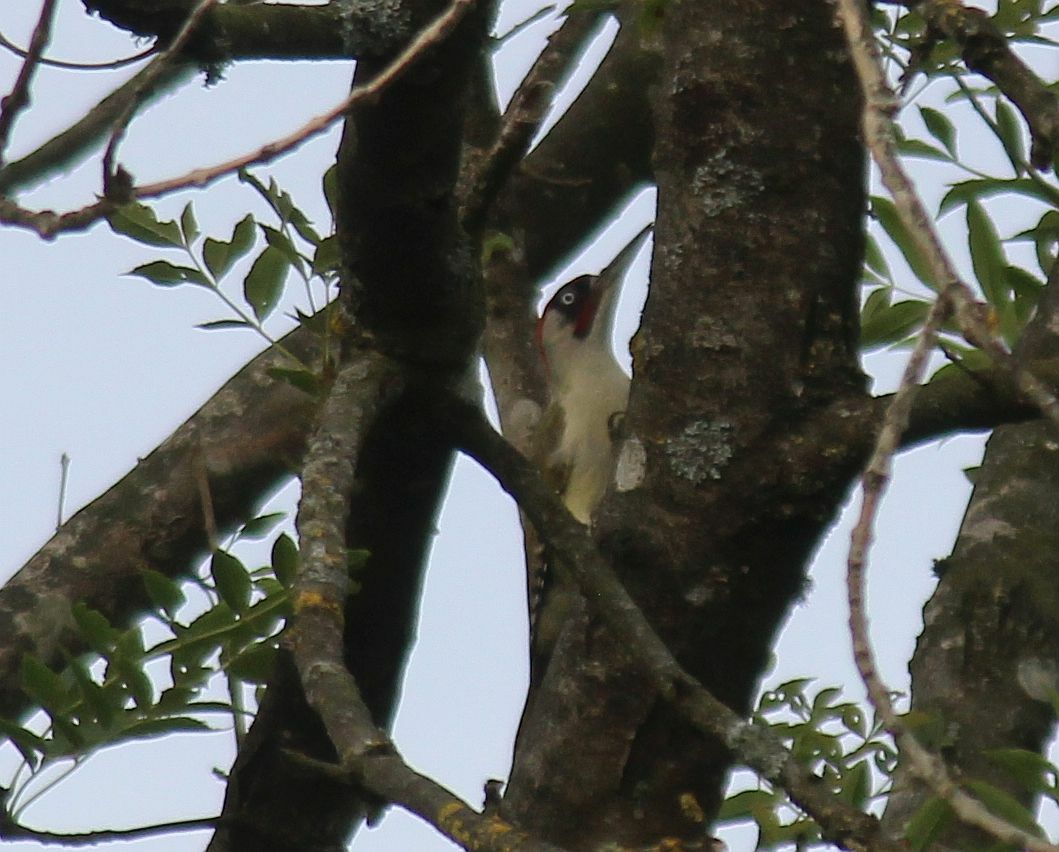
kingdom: Animalia
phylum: Chordata
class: Aves
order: Piciformes
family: Picidae
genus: Picus
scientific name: Picus viridis
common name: European green woodpecker
